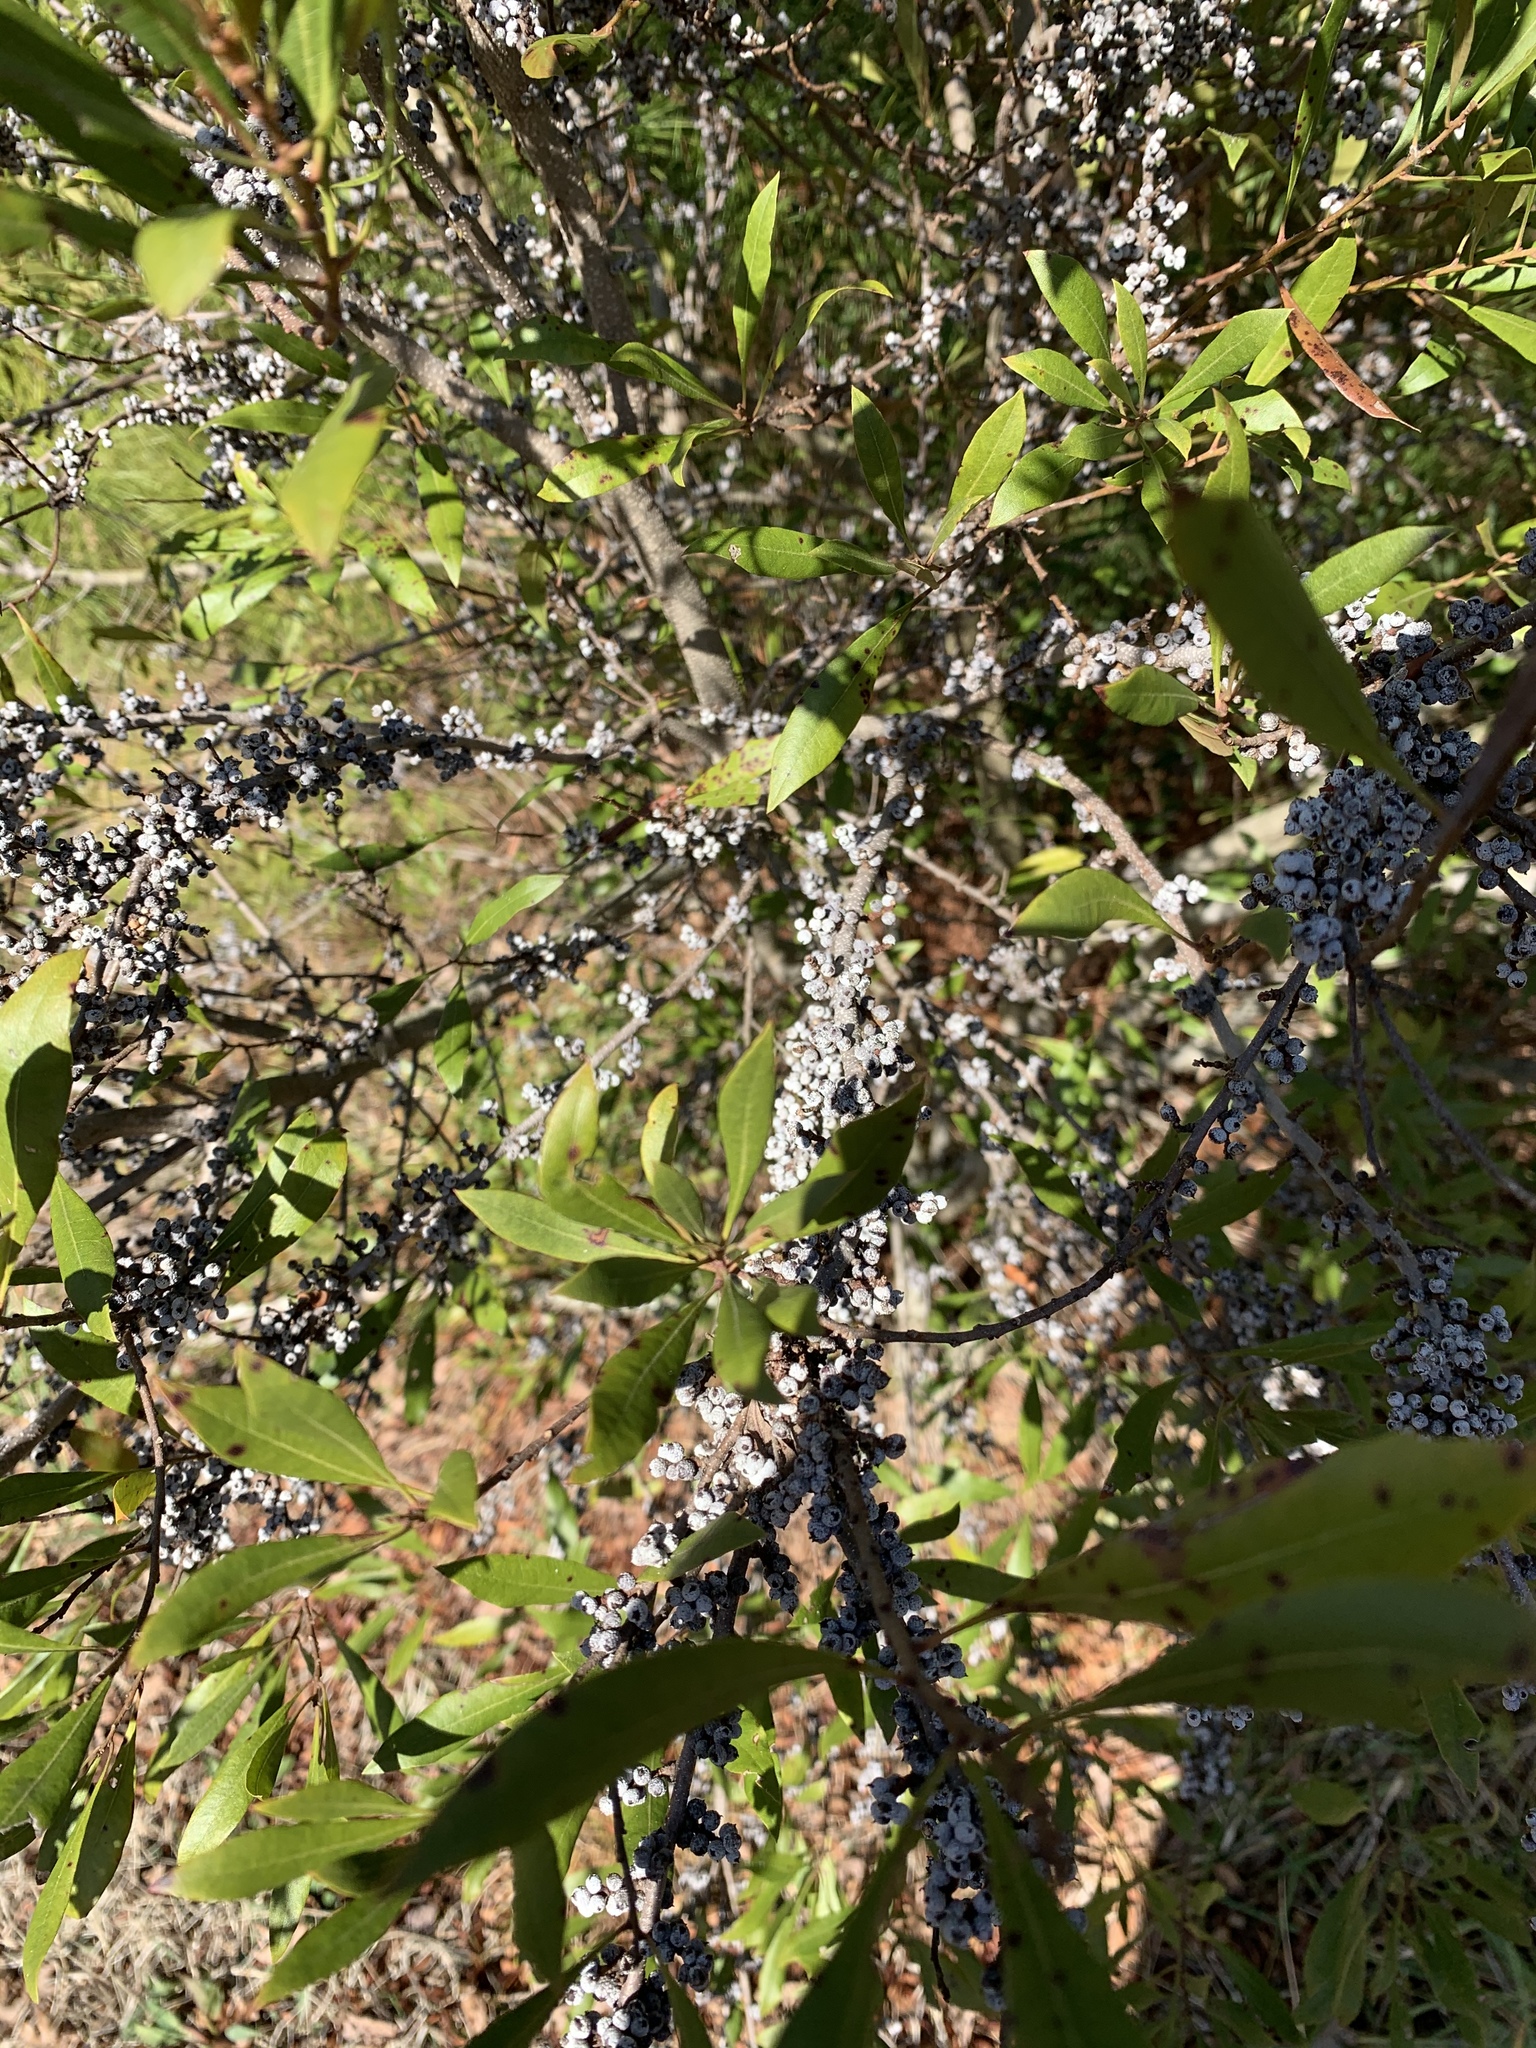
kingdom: Plantae
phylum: Tracheophyta
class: Magnoliopsida
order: Fagales
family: Myricaceae
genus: Morella
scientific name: Morella cerifera
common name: Wax myrtle
